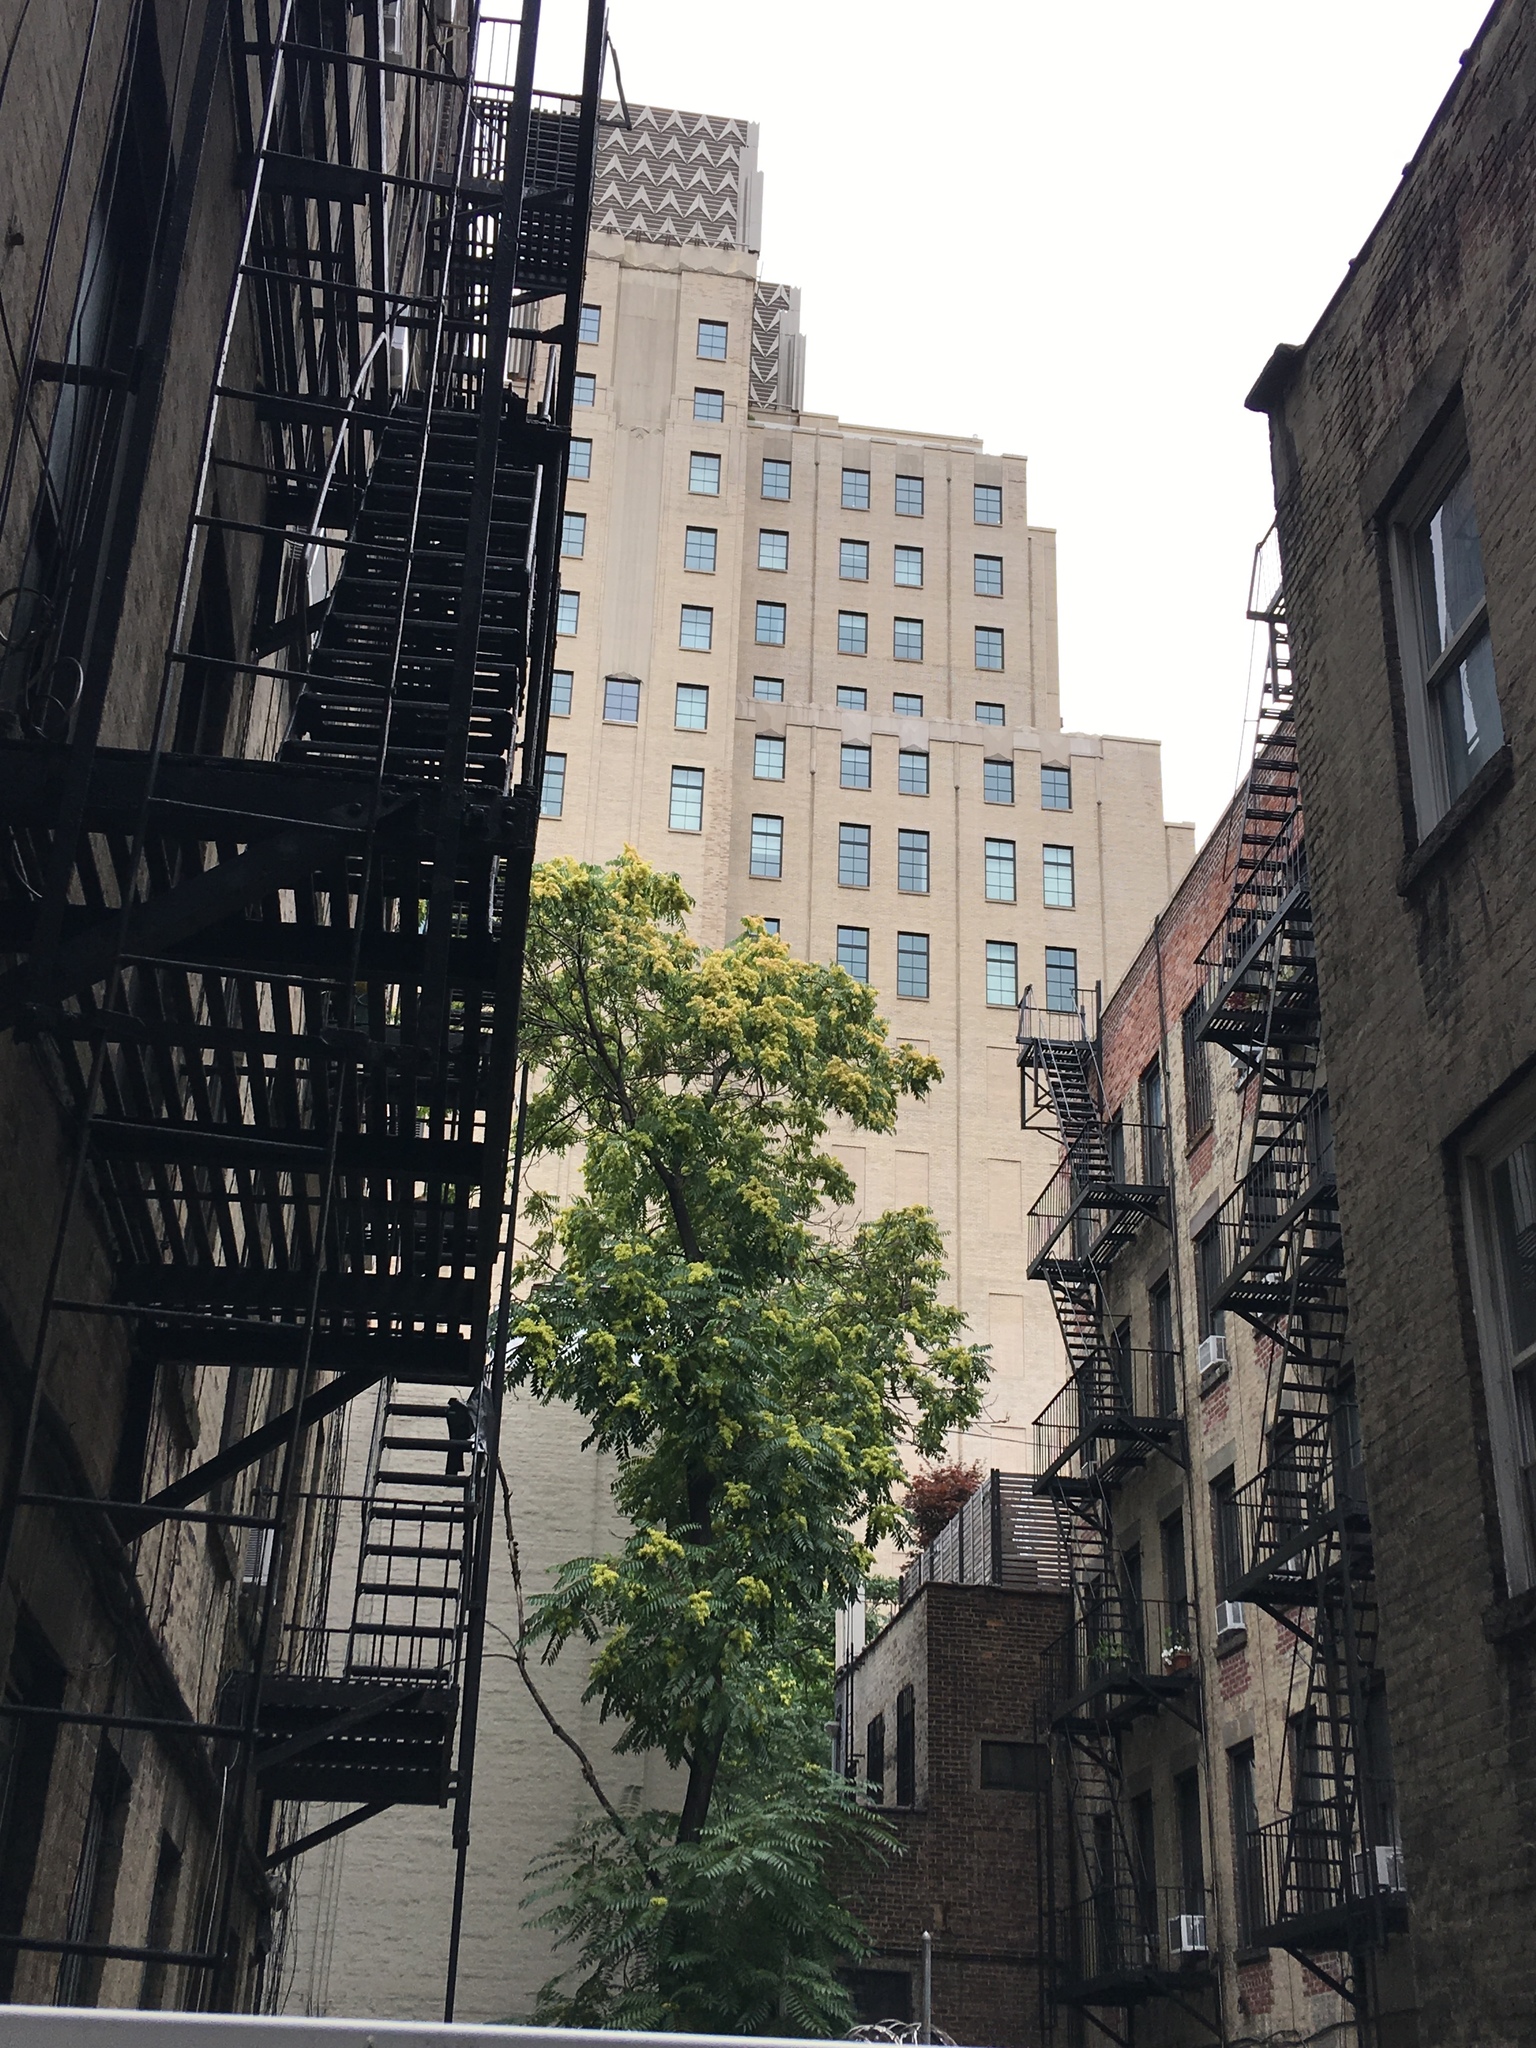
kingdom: Plantae
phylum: Tracheophyta
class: Magnoliopsida
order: Sapindales
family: Simaroubaceae
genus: Ailanthus
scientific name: Ailanthus altissima
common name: Tree-of-heaven
